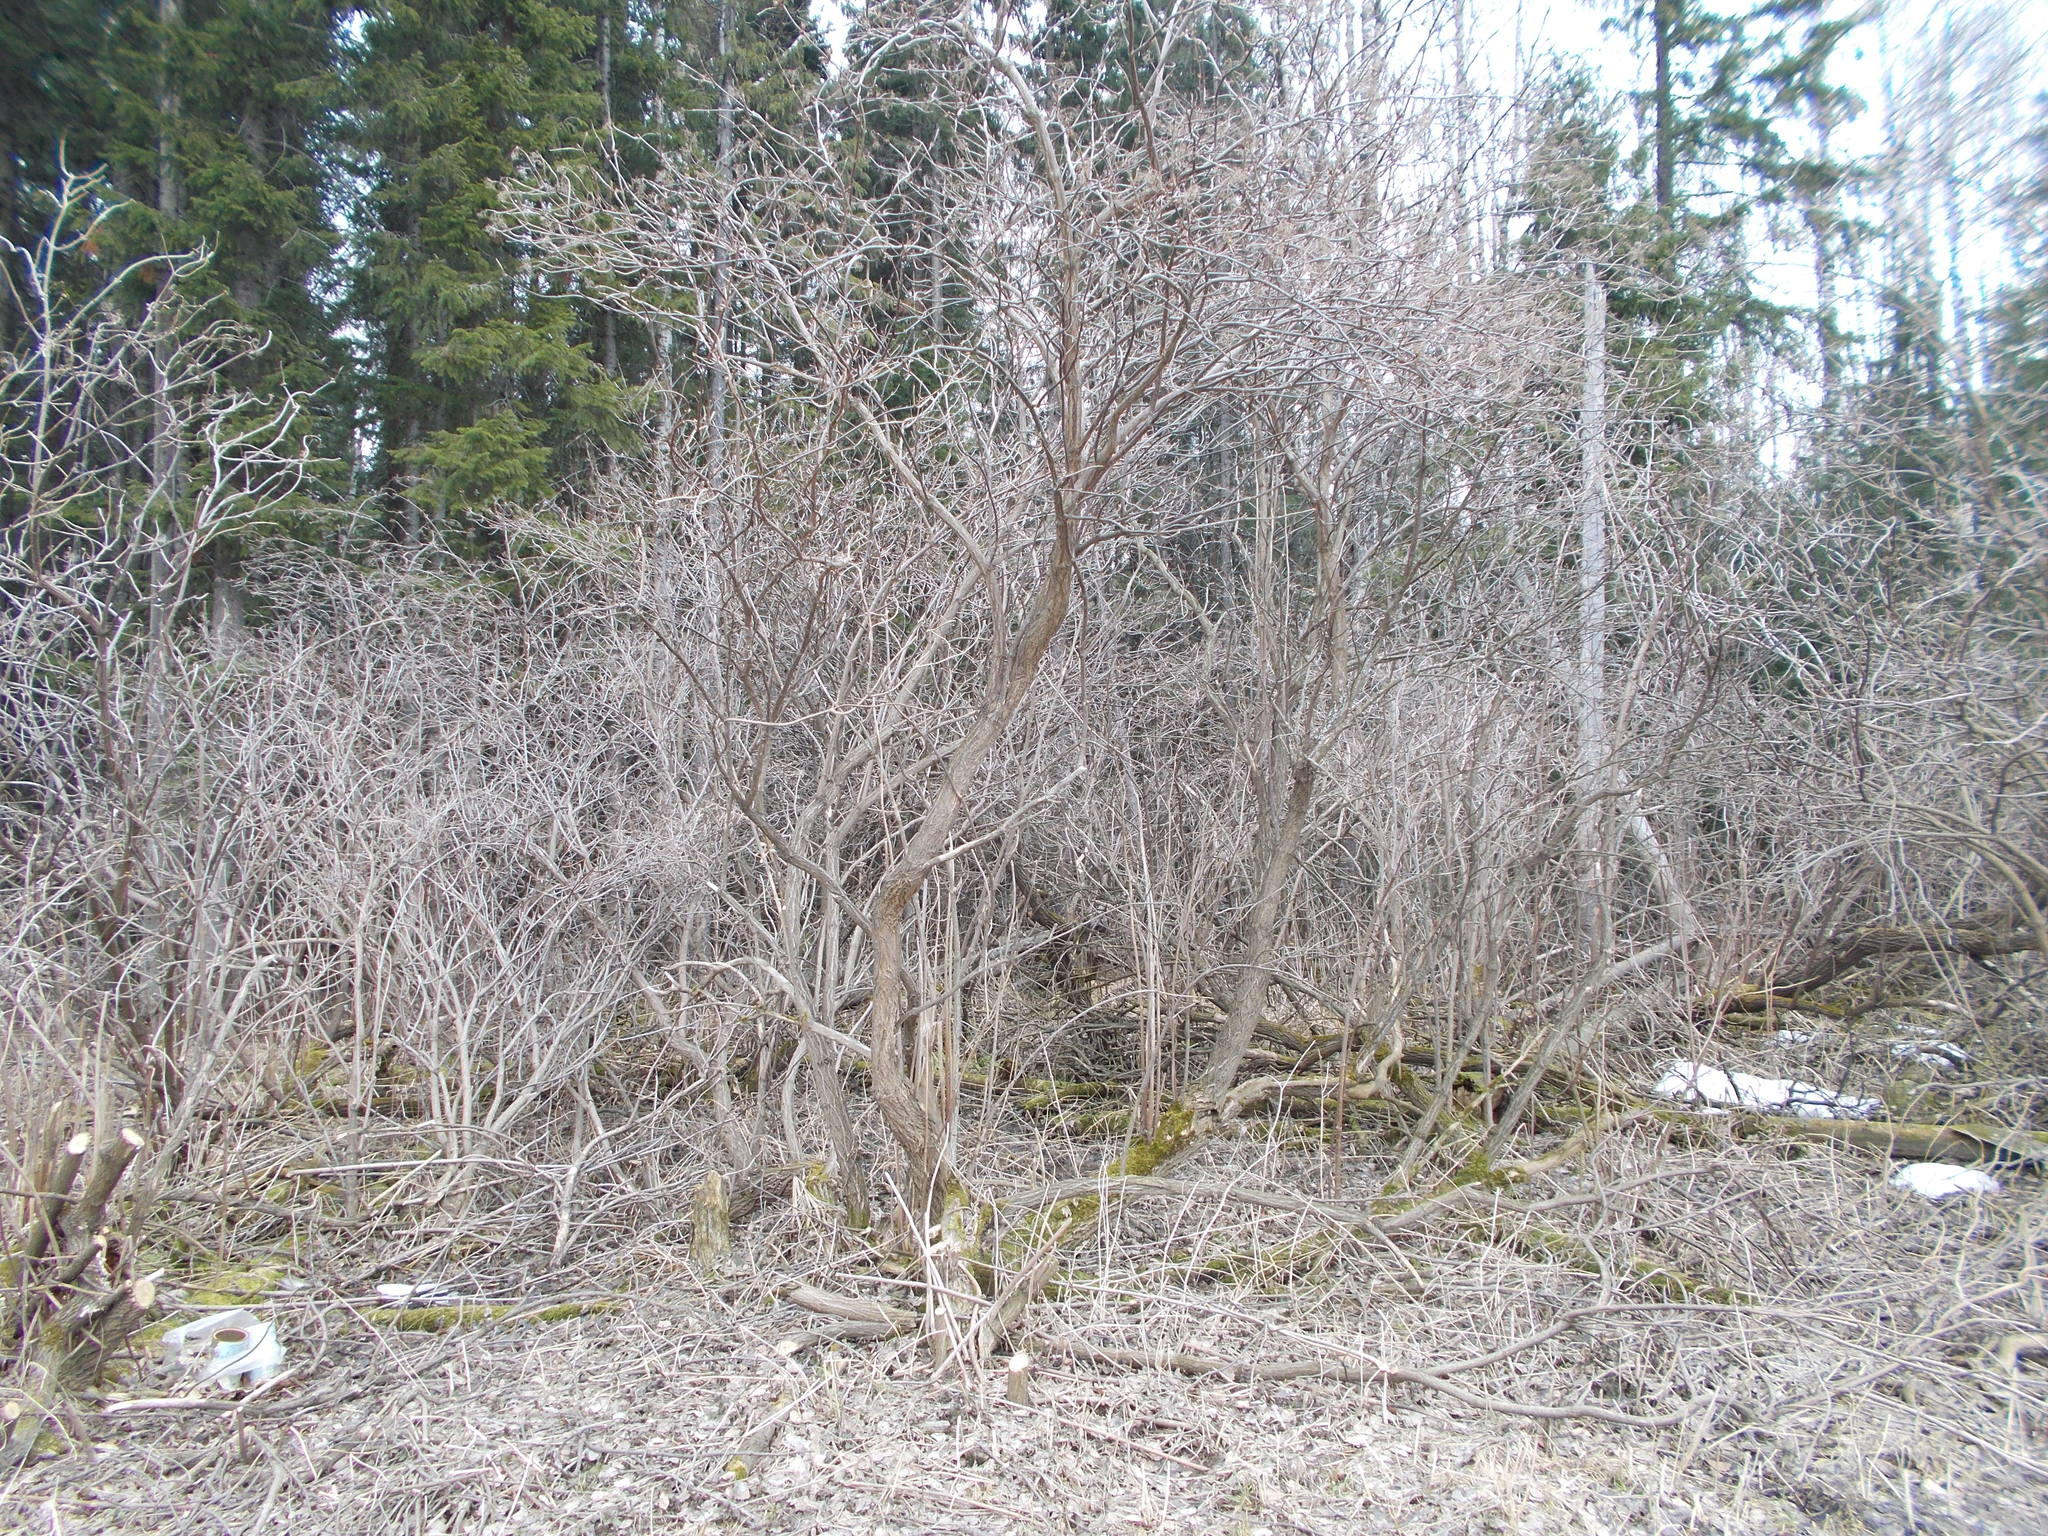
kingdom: Plantae
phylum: Tracheophyta
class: Magnoliopsida
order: Dipsacales
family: Viburnaceae
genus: Sambucus
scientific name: Sambucus sibirica
